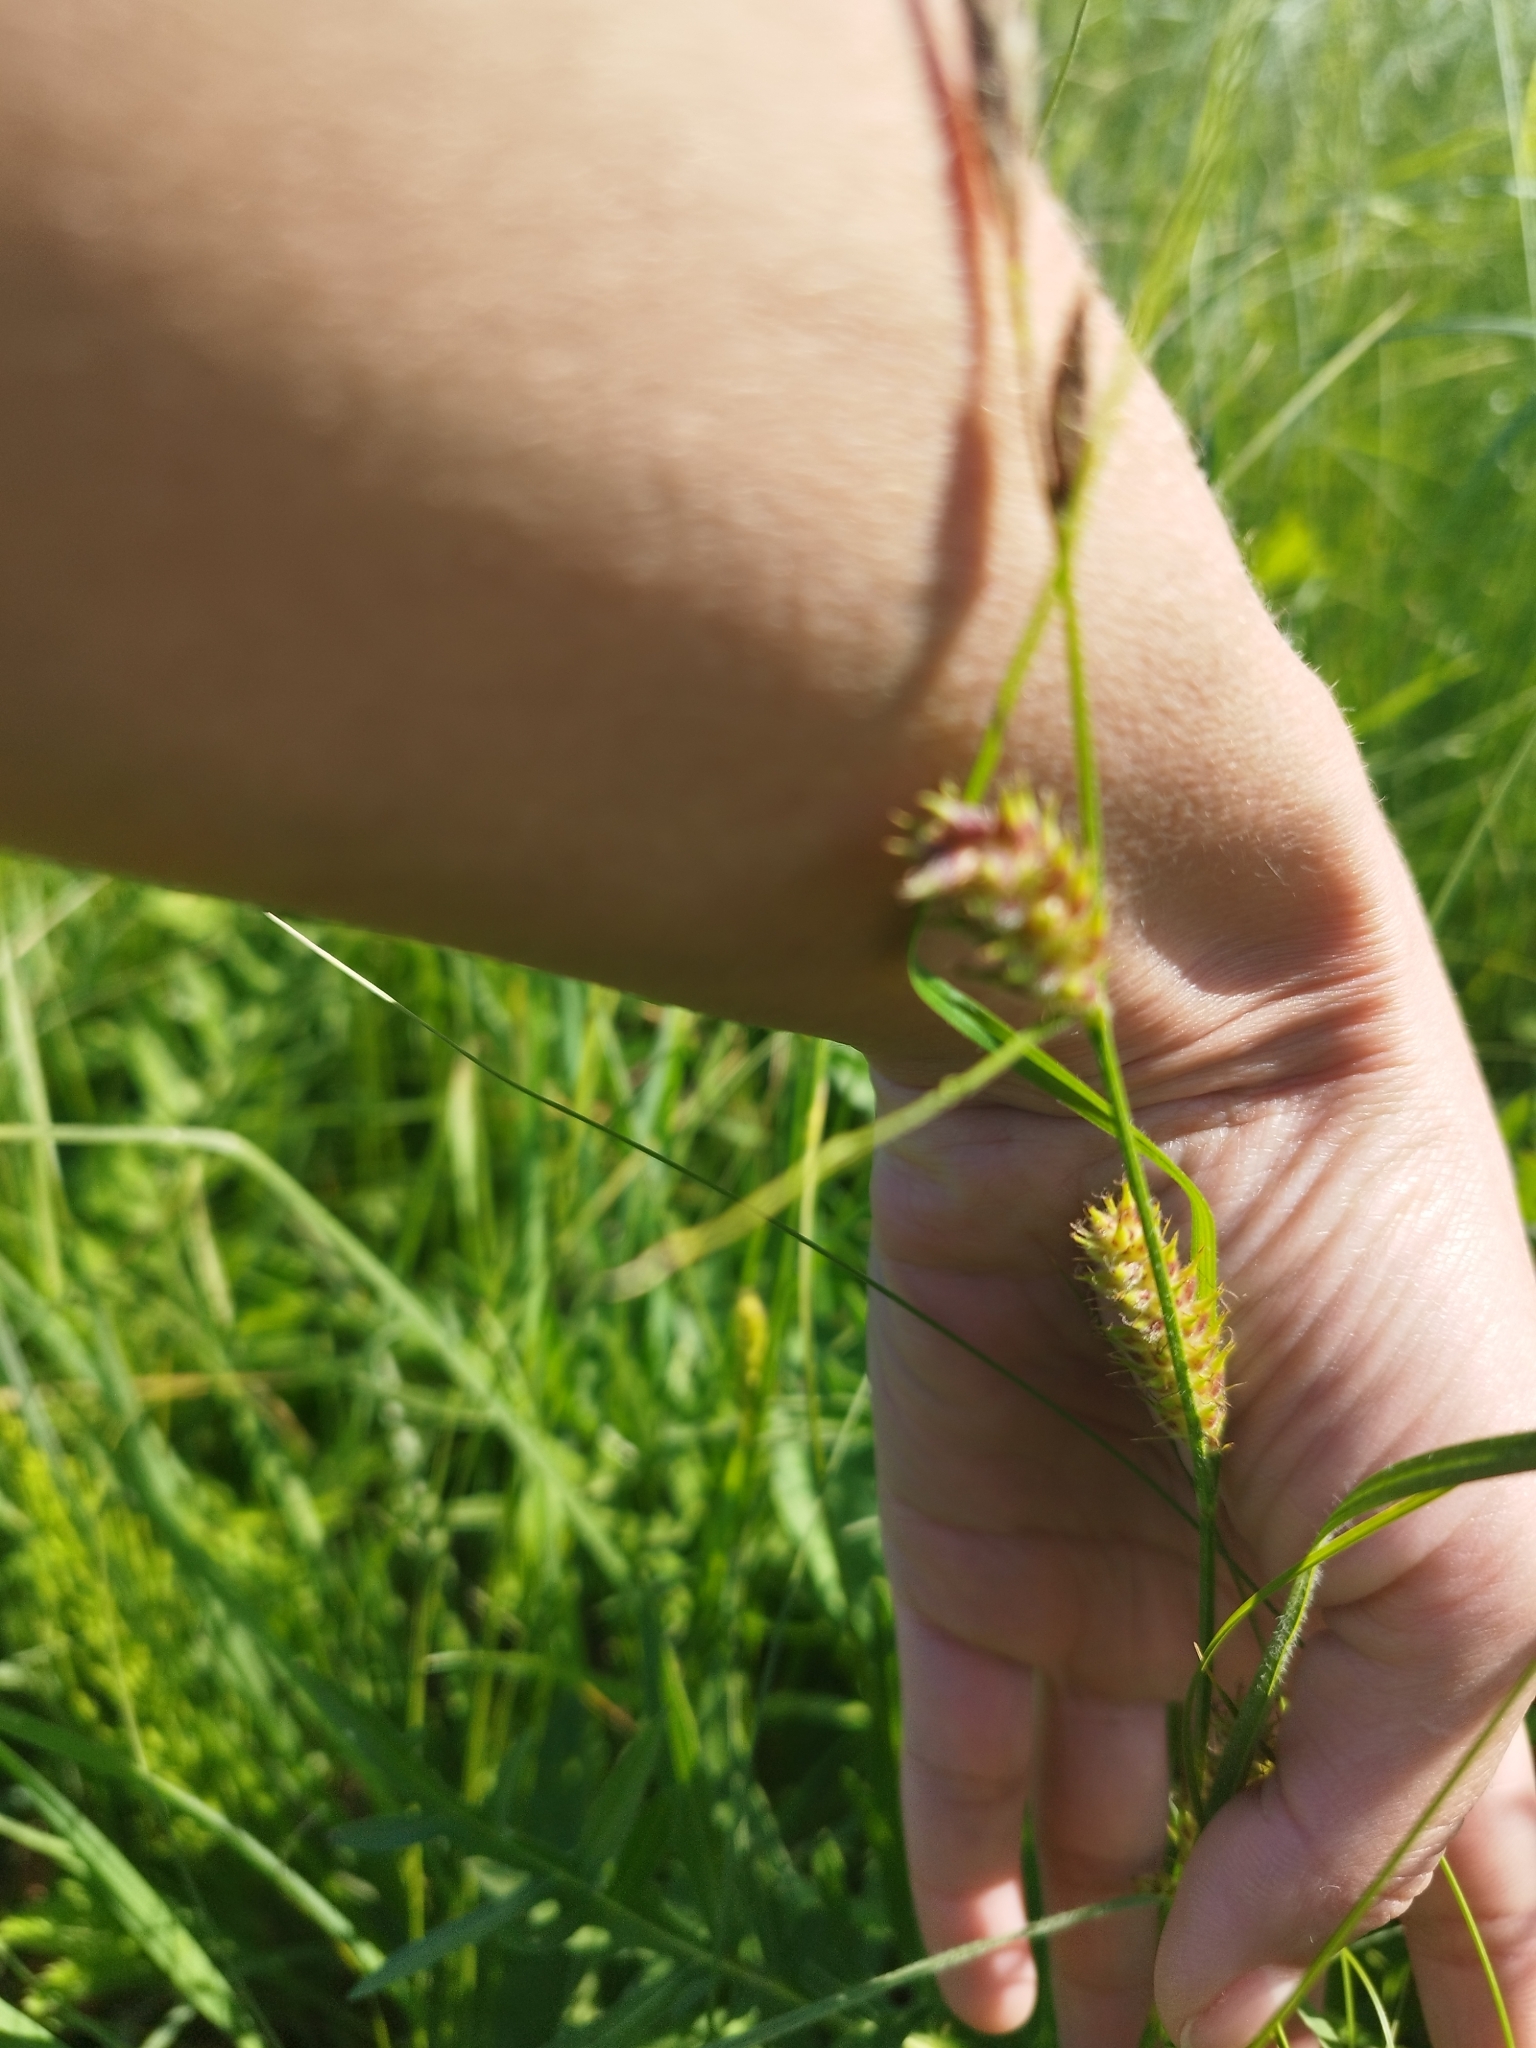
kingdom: Plantae
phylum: Tracheophyta
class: Liliopsida
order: Poales
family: Cyperaceae
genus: Carex
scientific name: Carex hirta
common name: Hairy sedge
